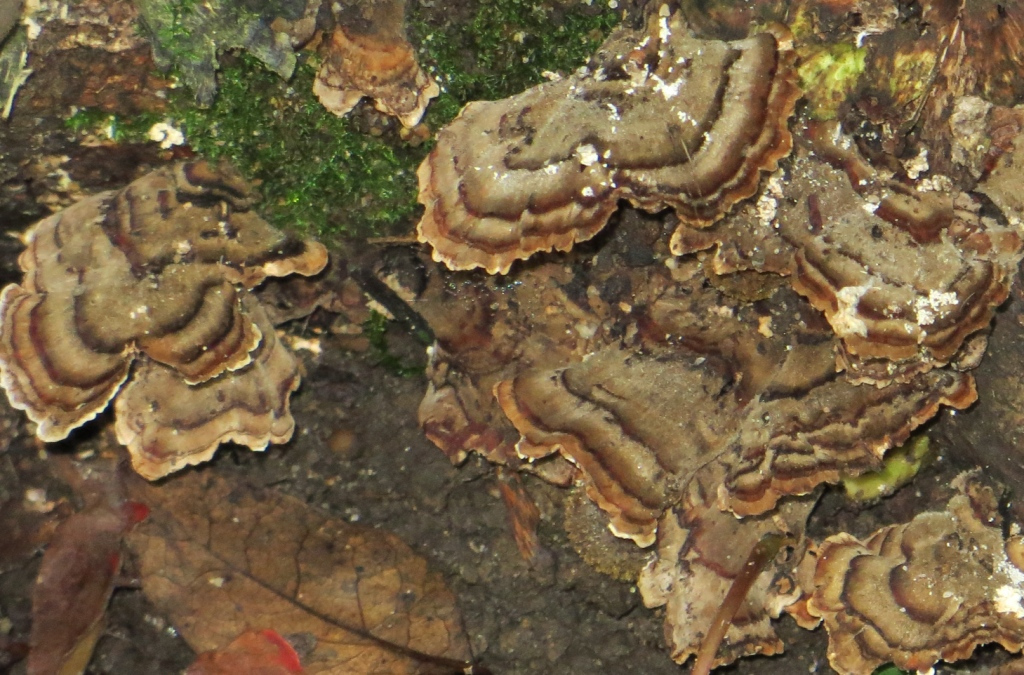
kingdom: Fungi
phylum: Basidiomycota
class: Agaricomycetes
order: Polyporales
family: Polyporaceae
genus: Trametes
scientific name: Trametes versicolor
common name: Turkeytail
